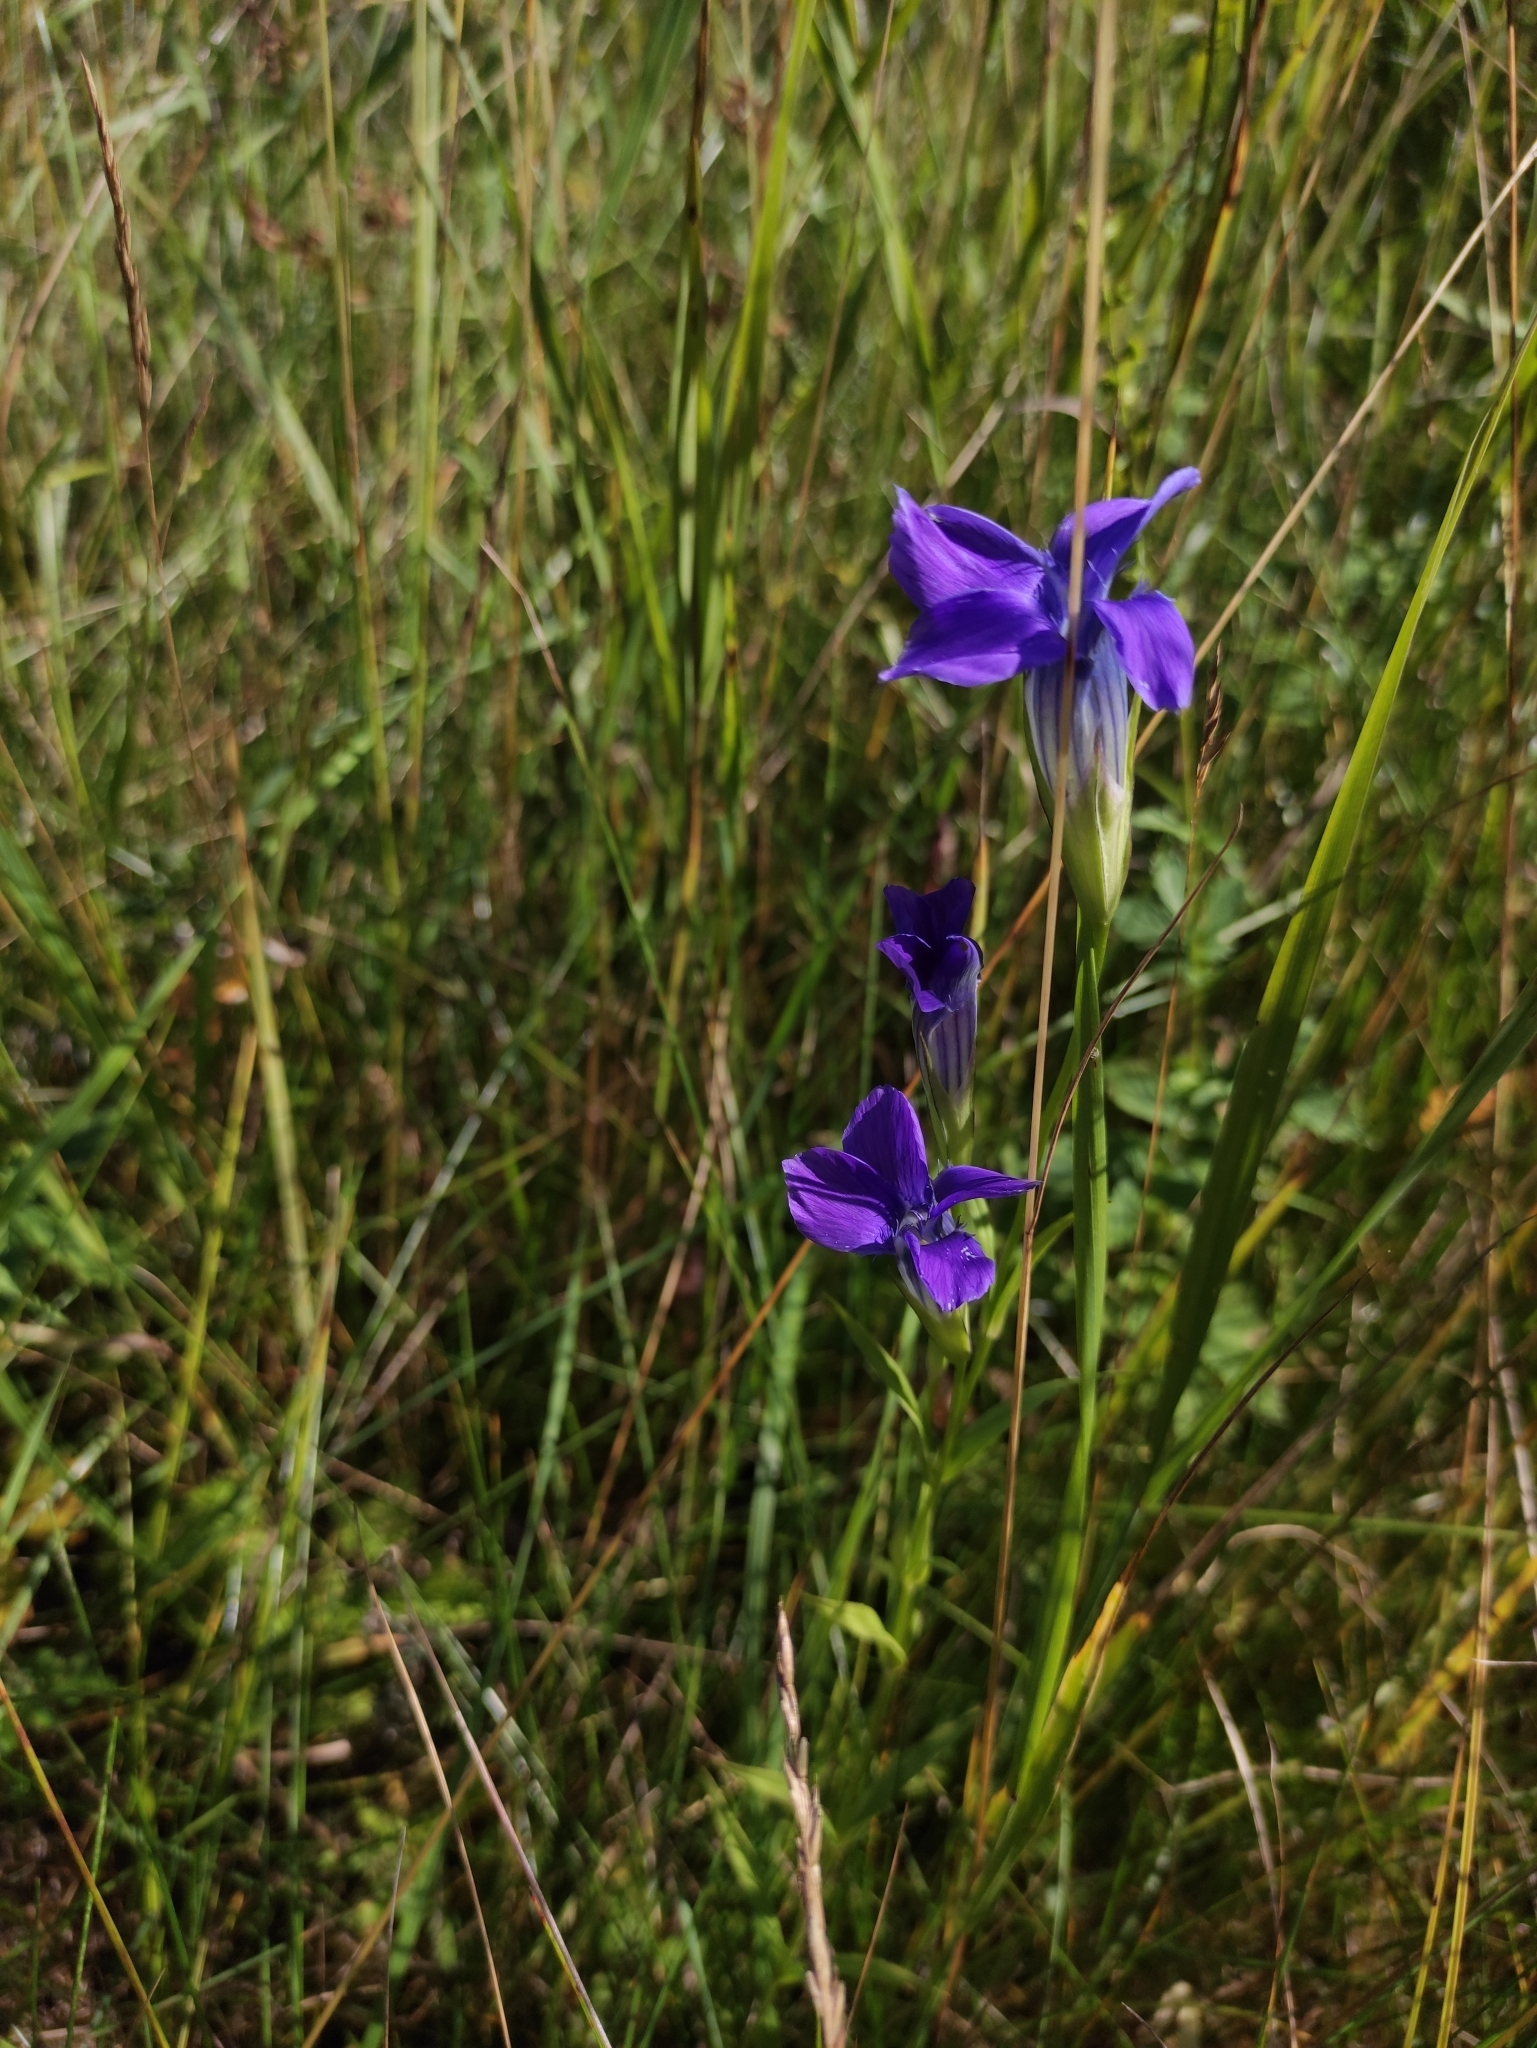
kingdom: Plantae
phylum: Tracheophyta
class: Magnoliopsida
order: Gentianales
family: Gentianaceae
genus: Gentianopsis
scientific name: Gentianopsis barbata
